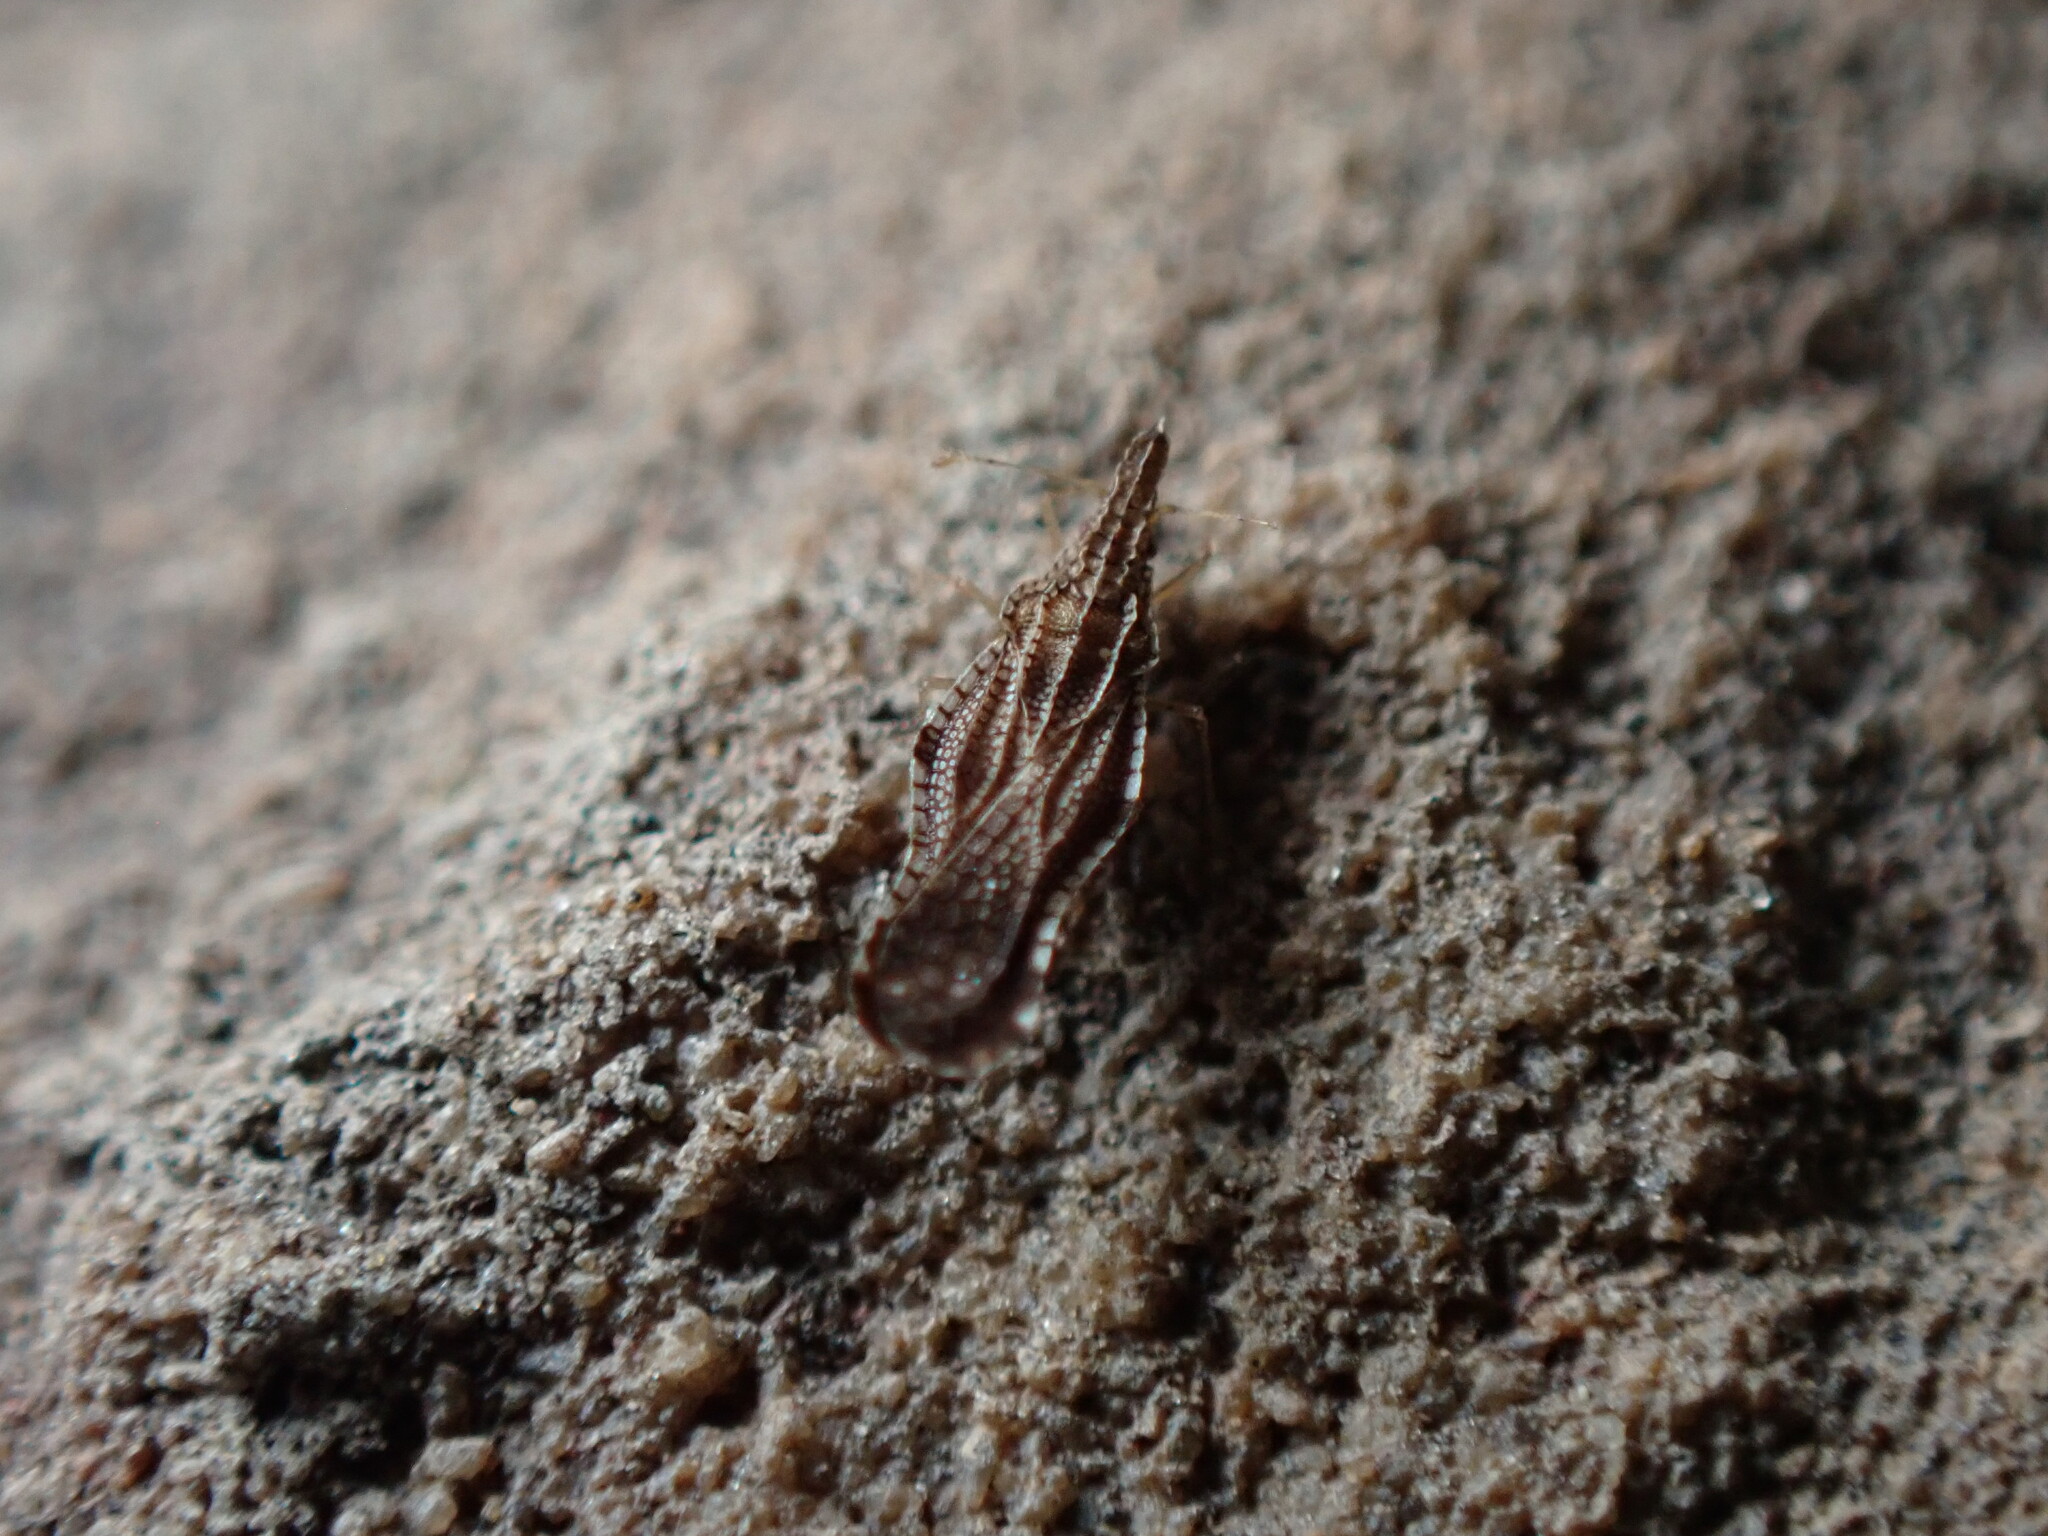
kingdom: Animalia
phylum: Arthropoda
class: Insecta
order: Hemiptera
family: Tingidae
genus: Corythaica
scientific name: Corythaica carinata
